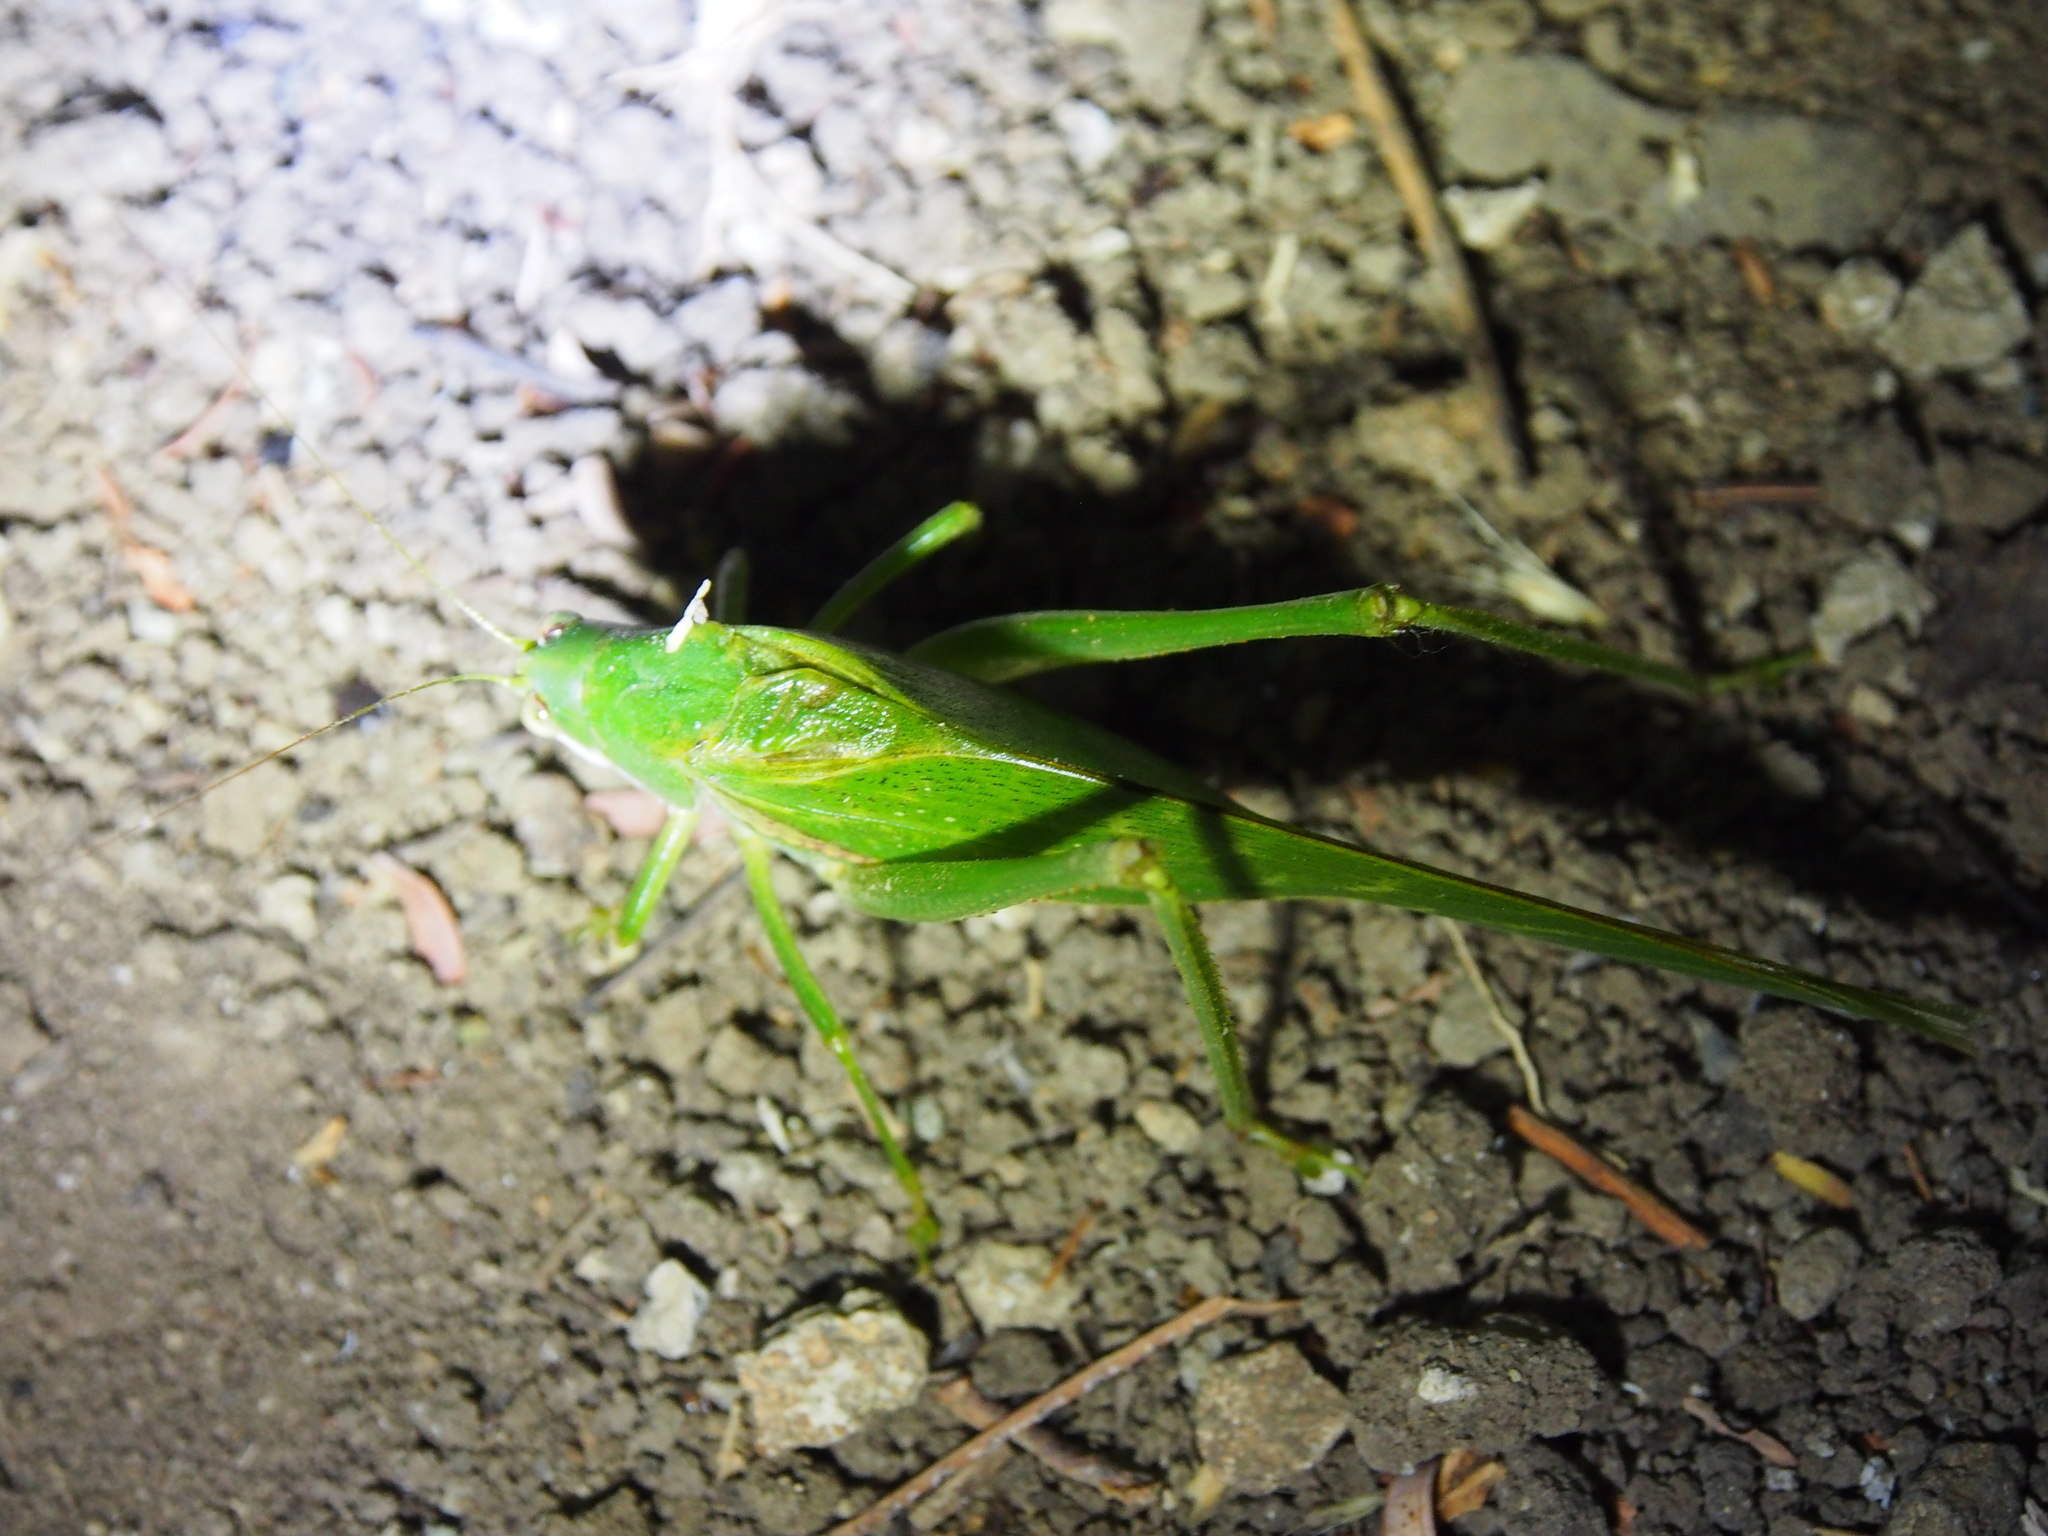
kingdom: Animalia
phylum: Arthropoda
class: Insecta
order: Orthoptera
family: Tettigoniidae
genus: Philophyllia
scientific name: Philophyllia guttulata
